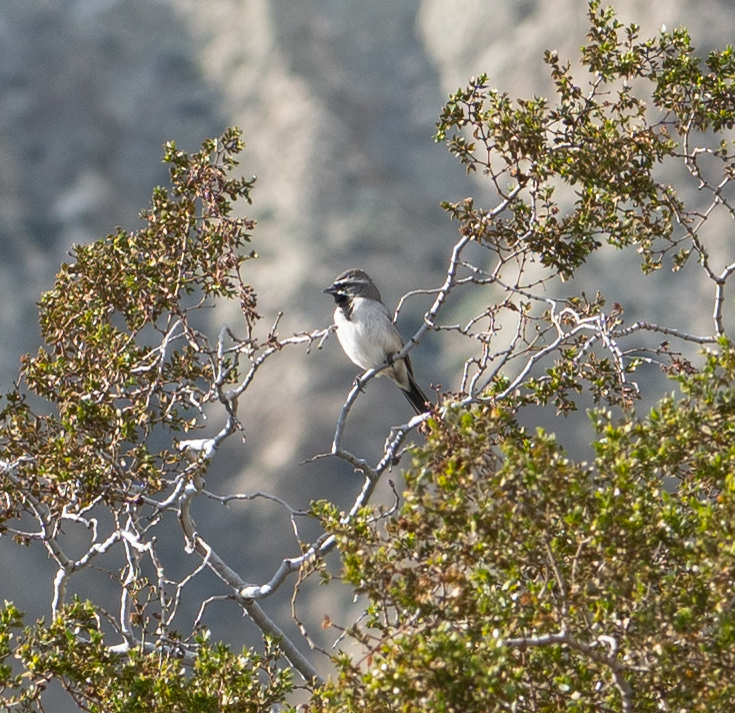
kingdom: Animalia
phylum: Chordata
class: Aves
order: Passeriformes
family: Passerellidae
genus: Amphispiza
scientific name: Amphispiza bilineata
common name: Black-throated sparrow
